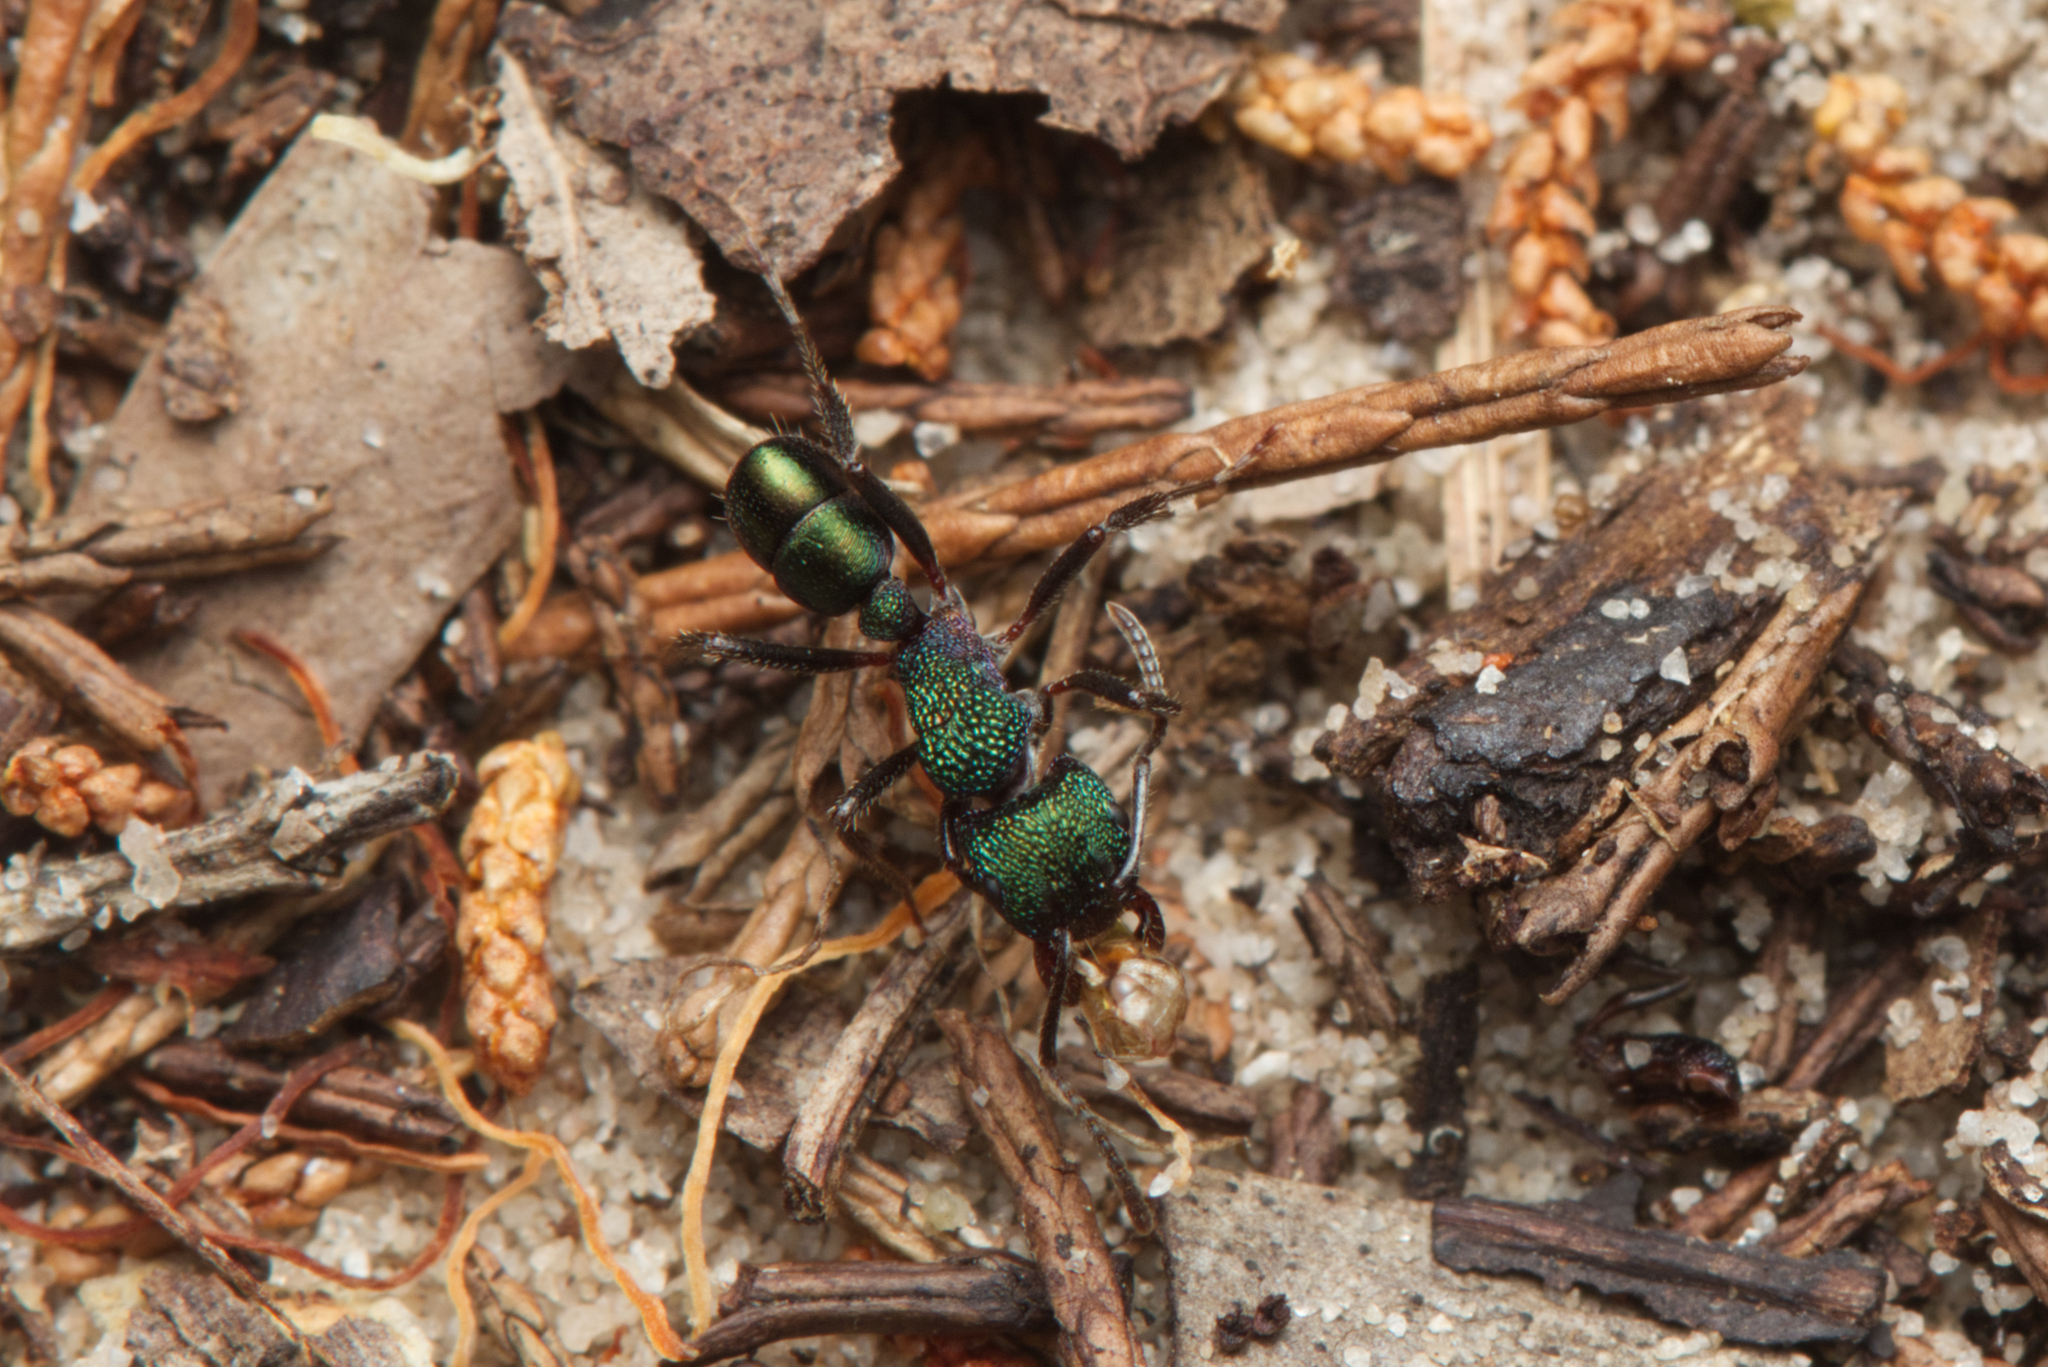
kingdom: Animalia
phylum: Arthropoda
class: Insecta
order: Hymenoptera
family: Formicidae
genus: Rhytidoponera
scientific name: Rhytidoponera metallica
